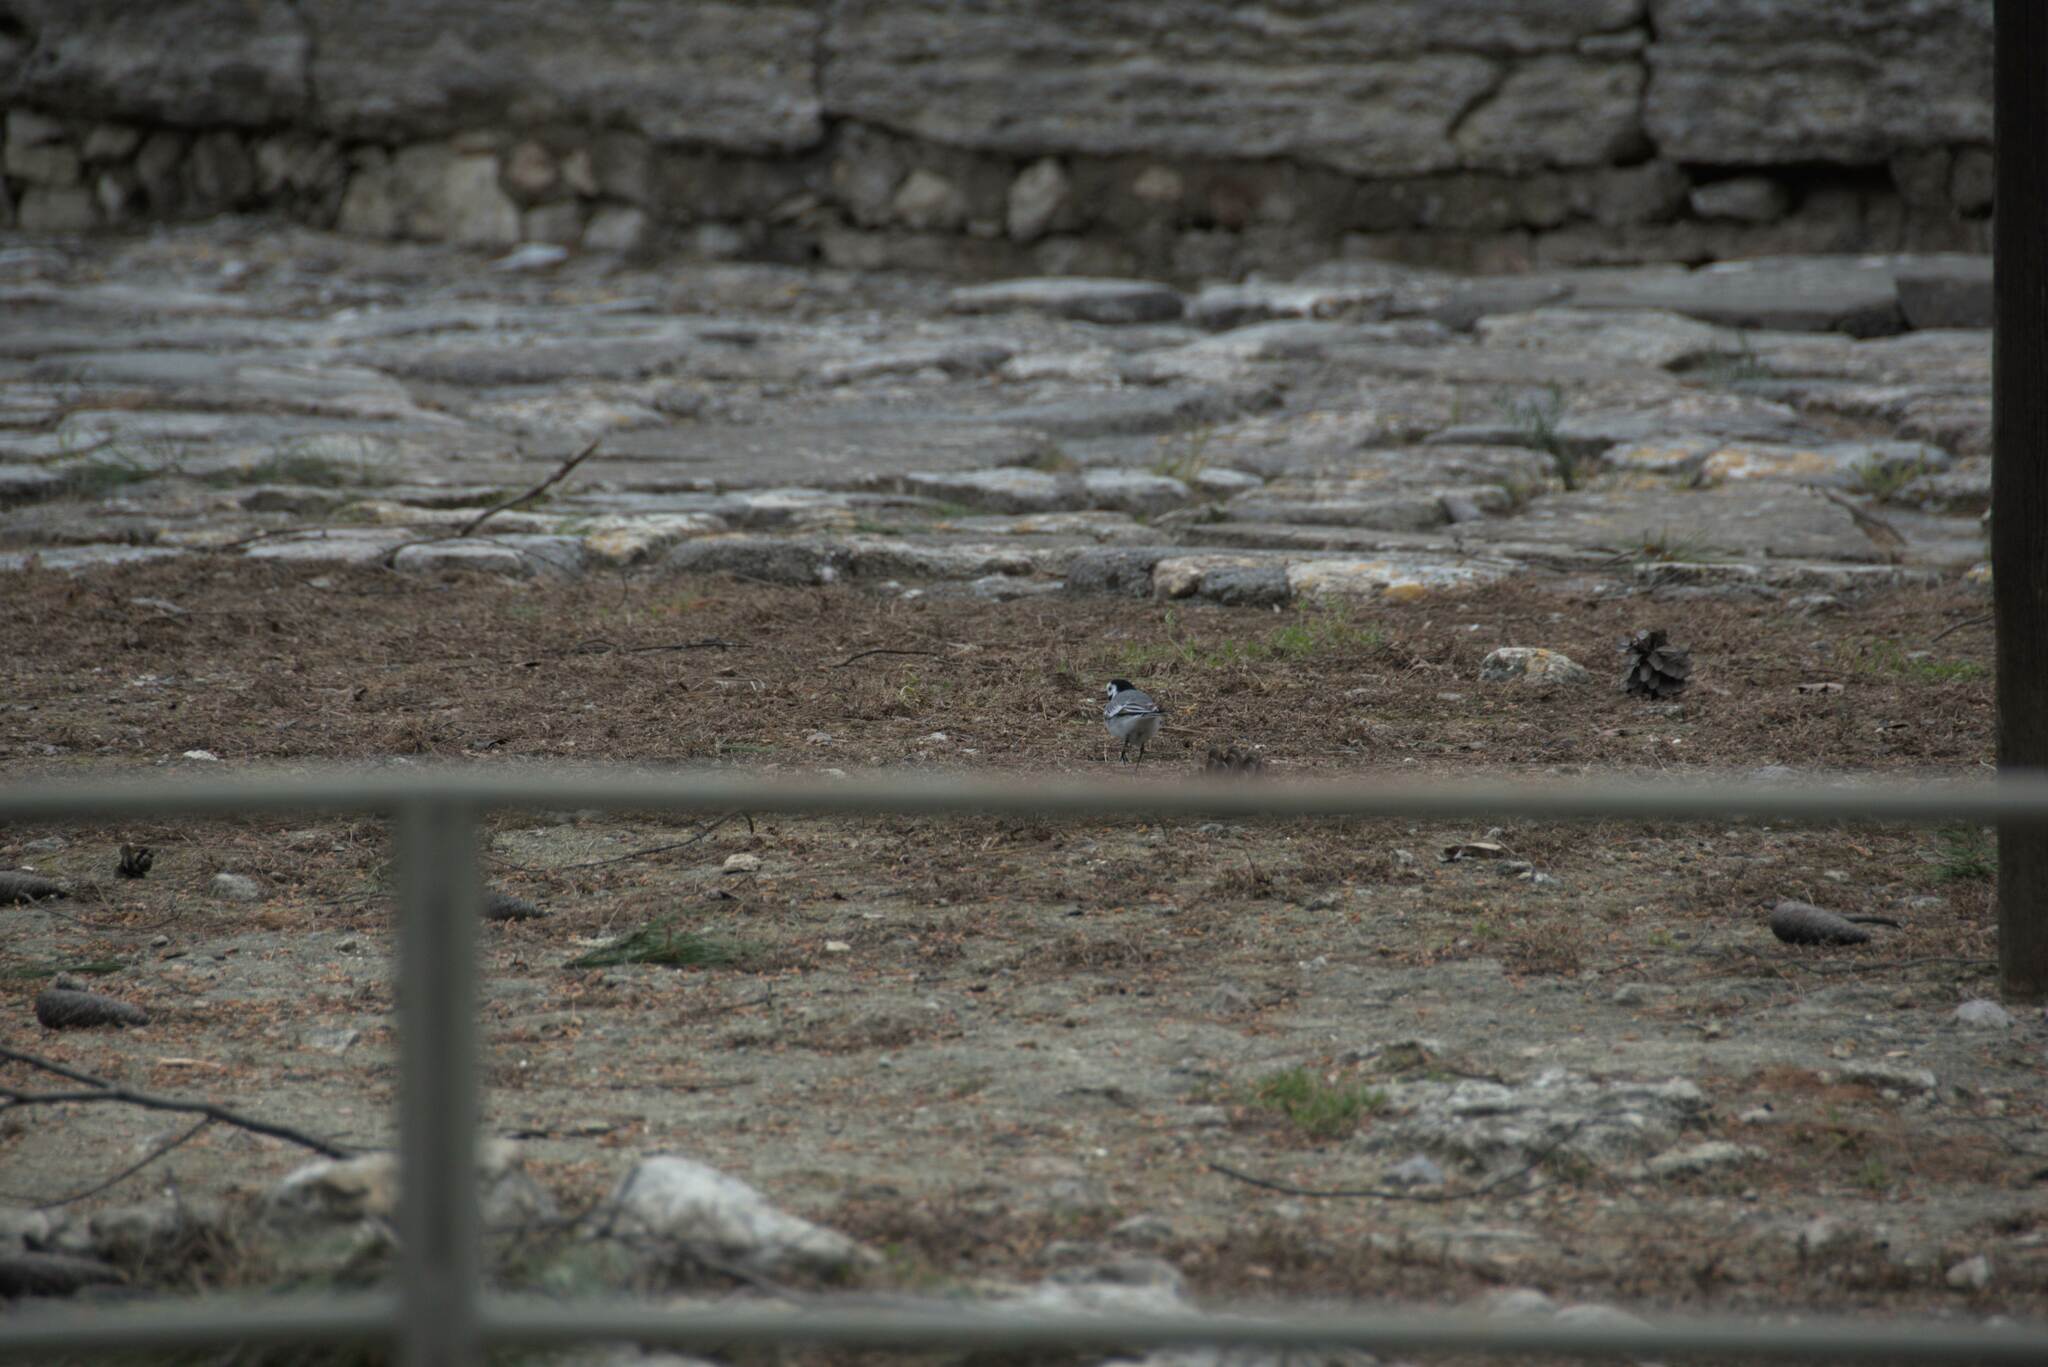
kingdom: Animalia
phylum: Chordata
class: Aves
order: Passeriformes
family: Motacillidae
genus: Motacilla
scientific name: Motacilla alba
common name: White wagtail
